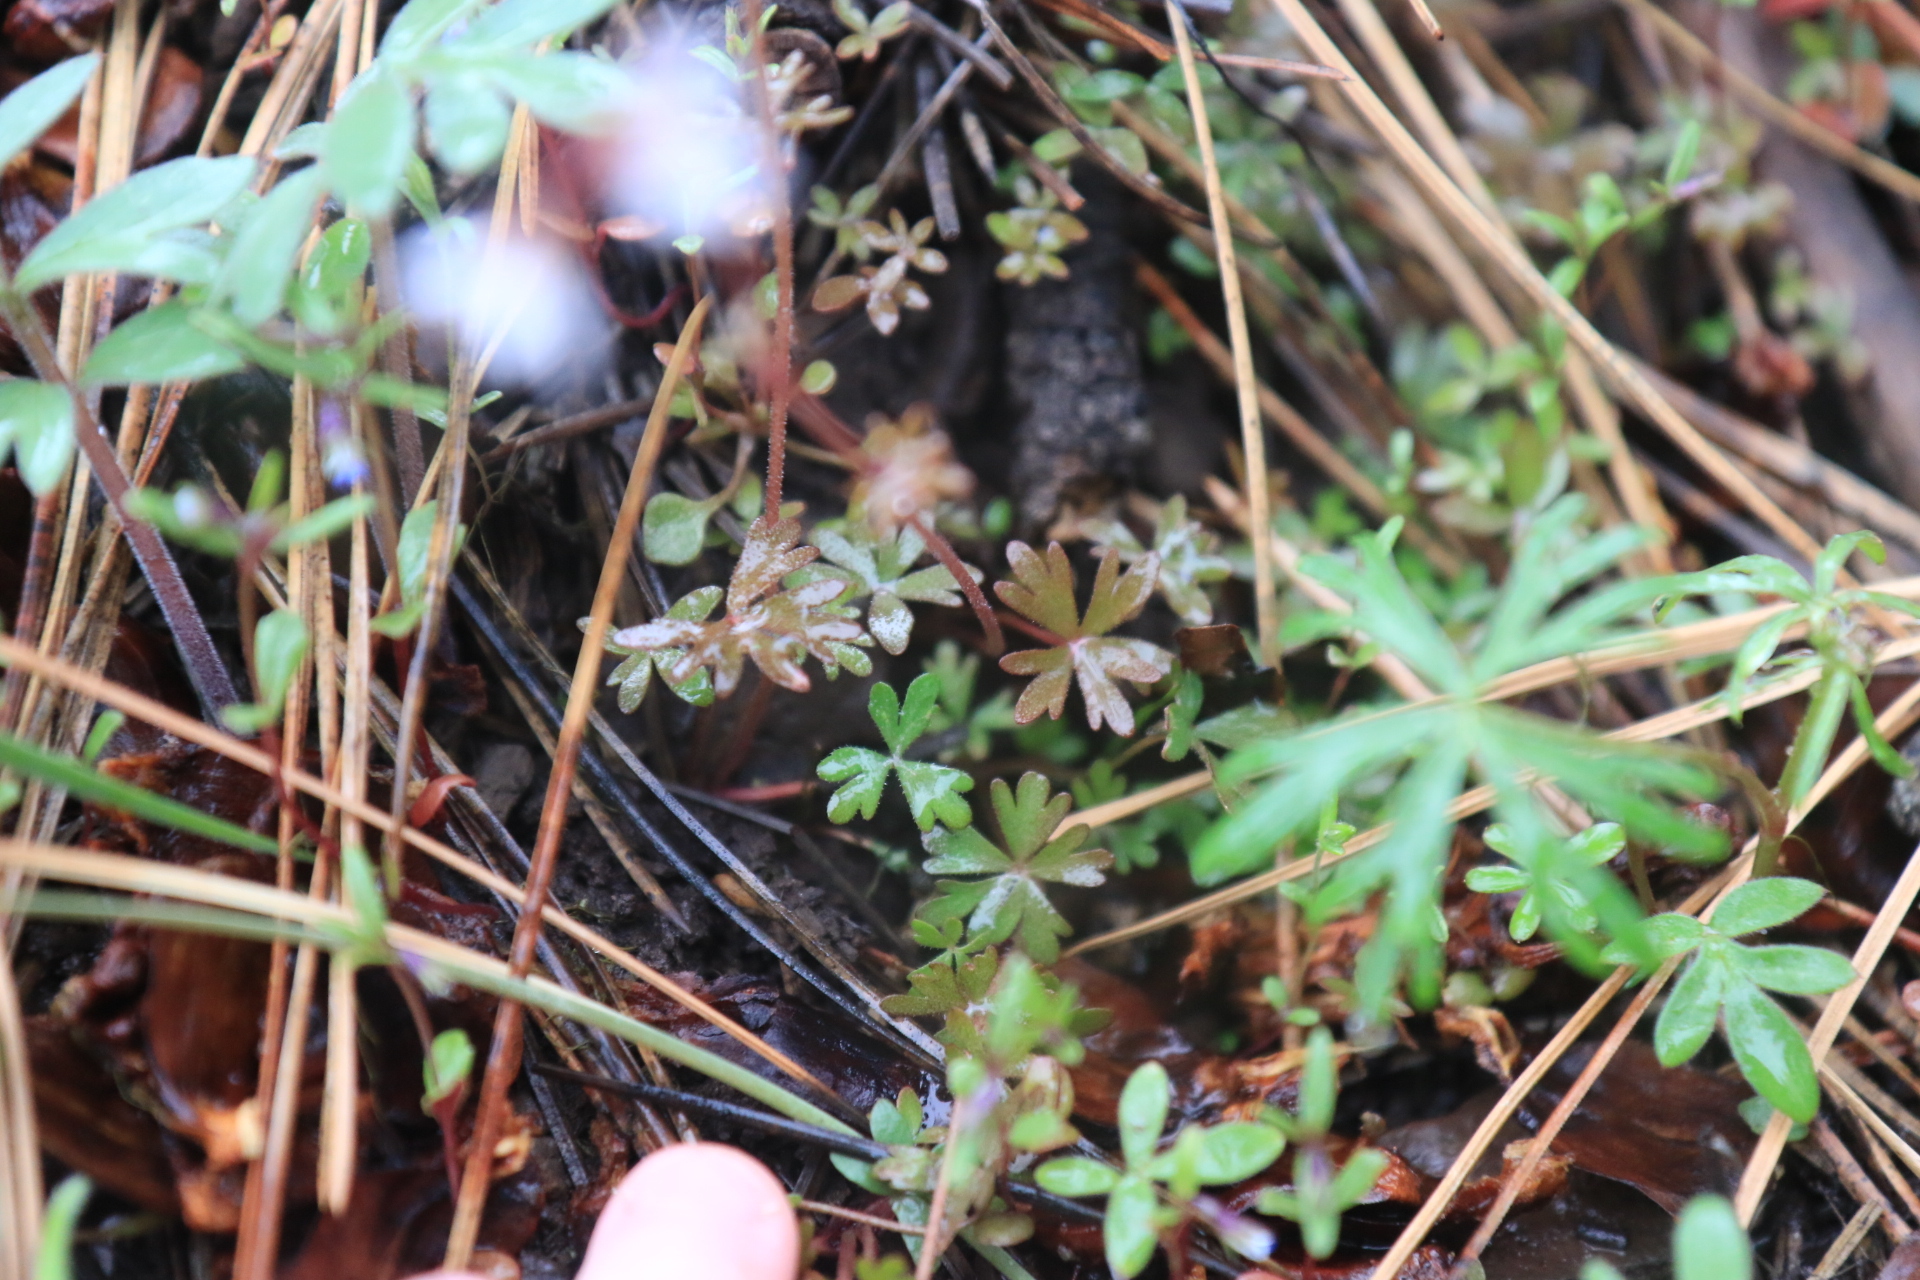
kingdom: Plantae
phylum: Tracheophyta
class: Magnoliopsida
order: Saxifragales
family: Saxifragaceae
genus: Lithophragma
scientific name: Lithophragma glabrum
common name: Bulbous prairie-star
